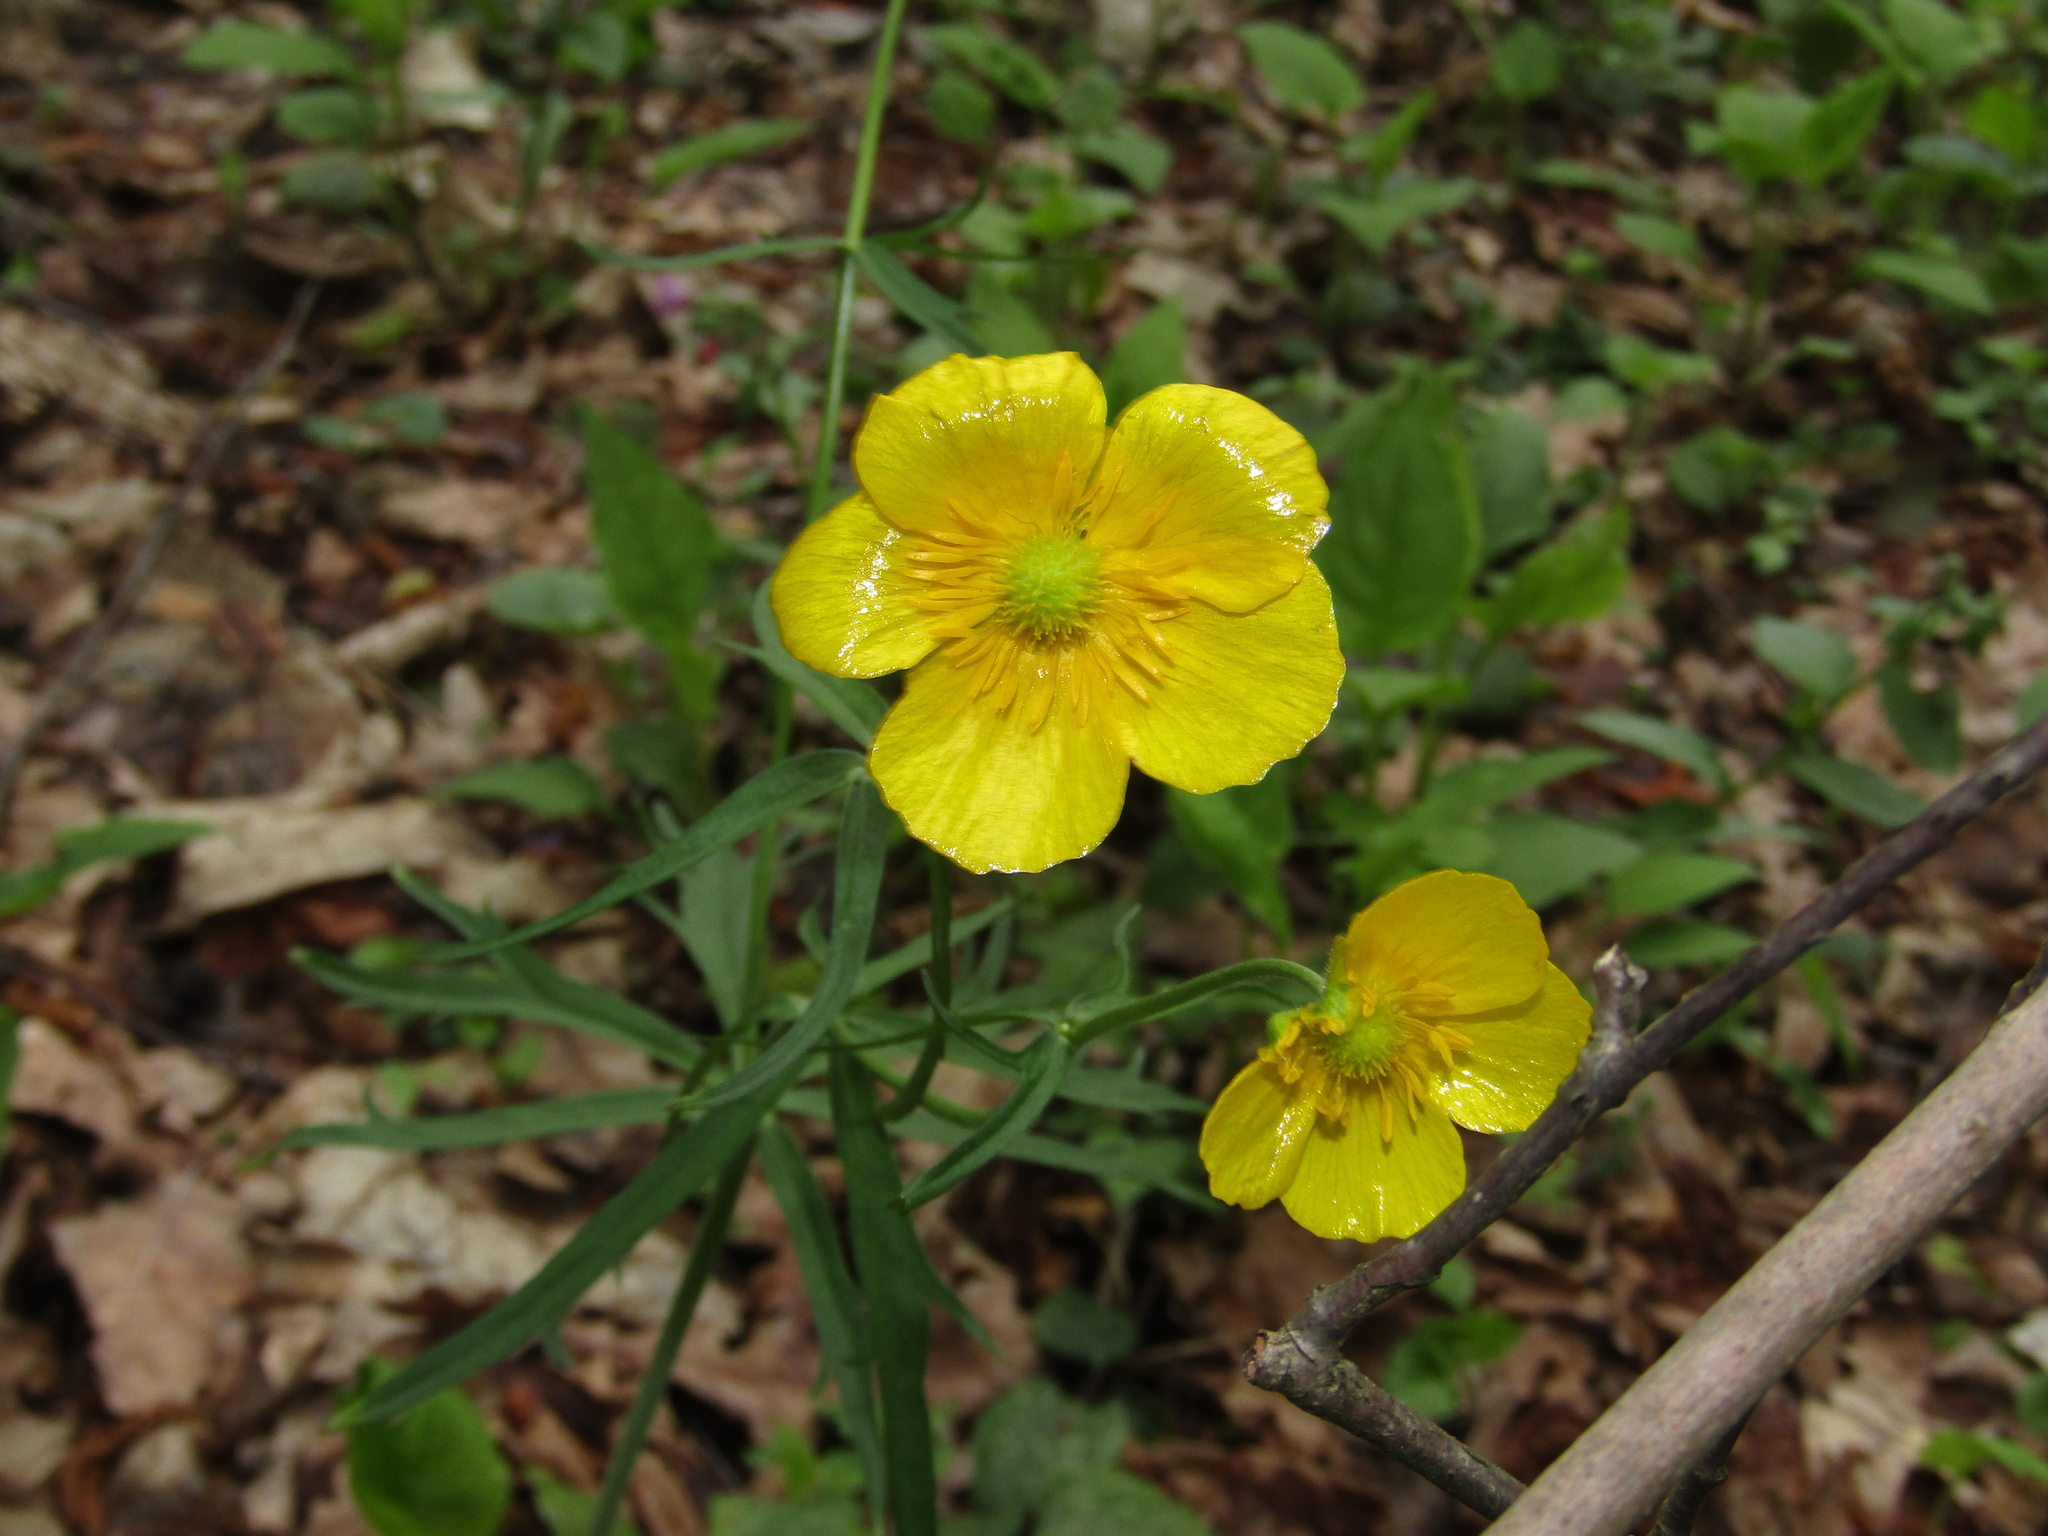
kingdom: Plantae
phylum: Tracheophyta
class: Magnoliopsida
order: Ranunculales
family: Ranunculaceae
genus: Ranunculus
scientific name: Ranunculus cassubicus
